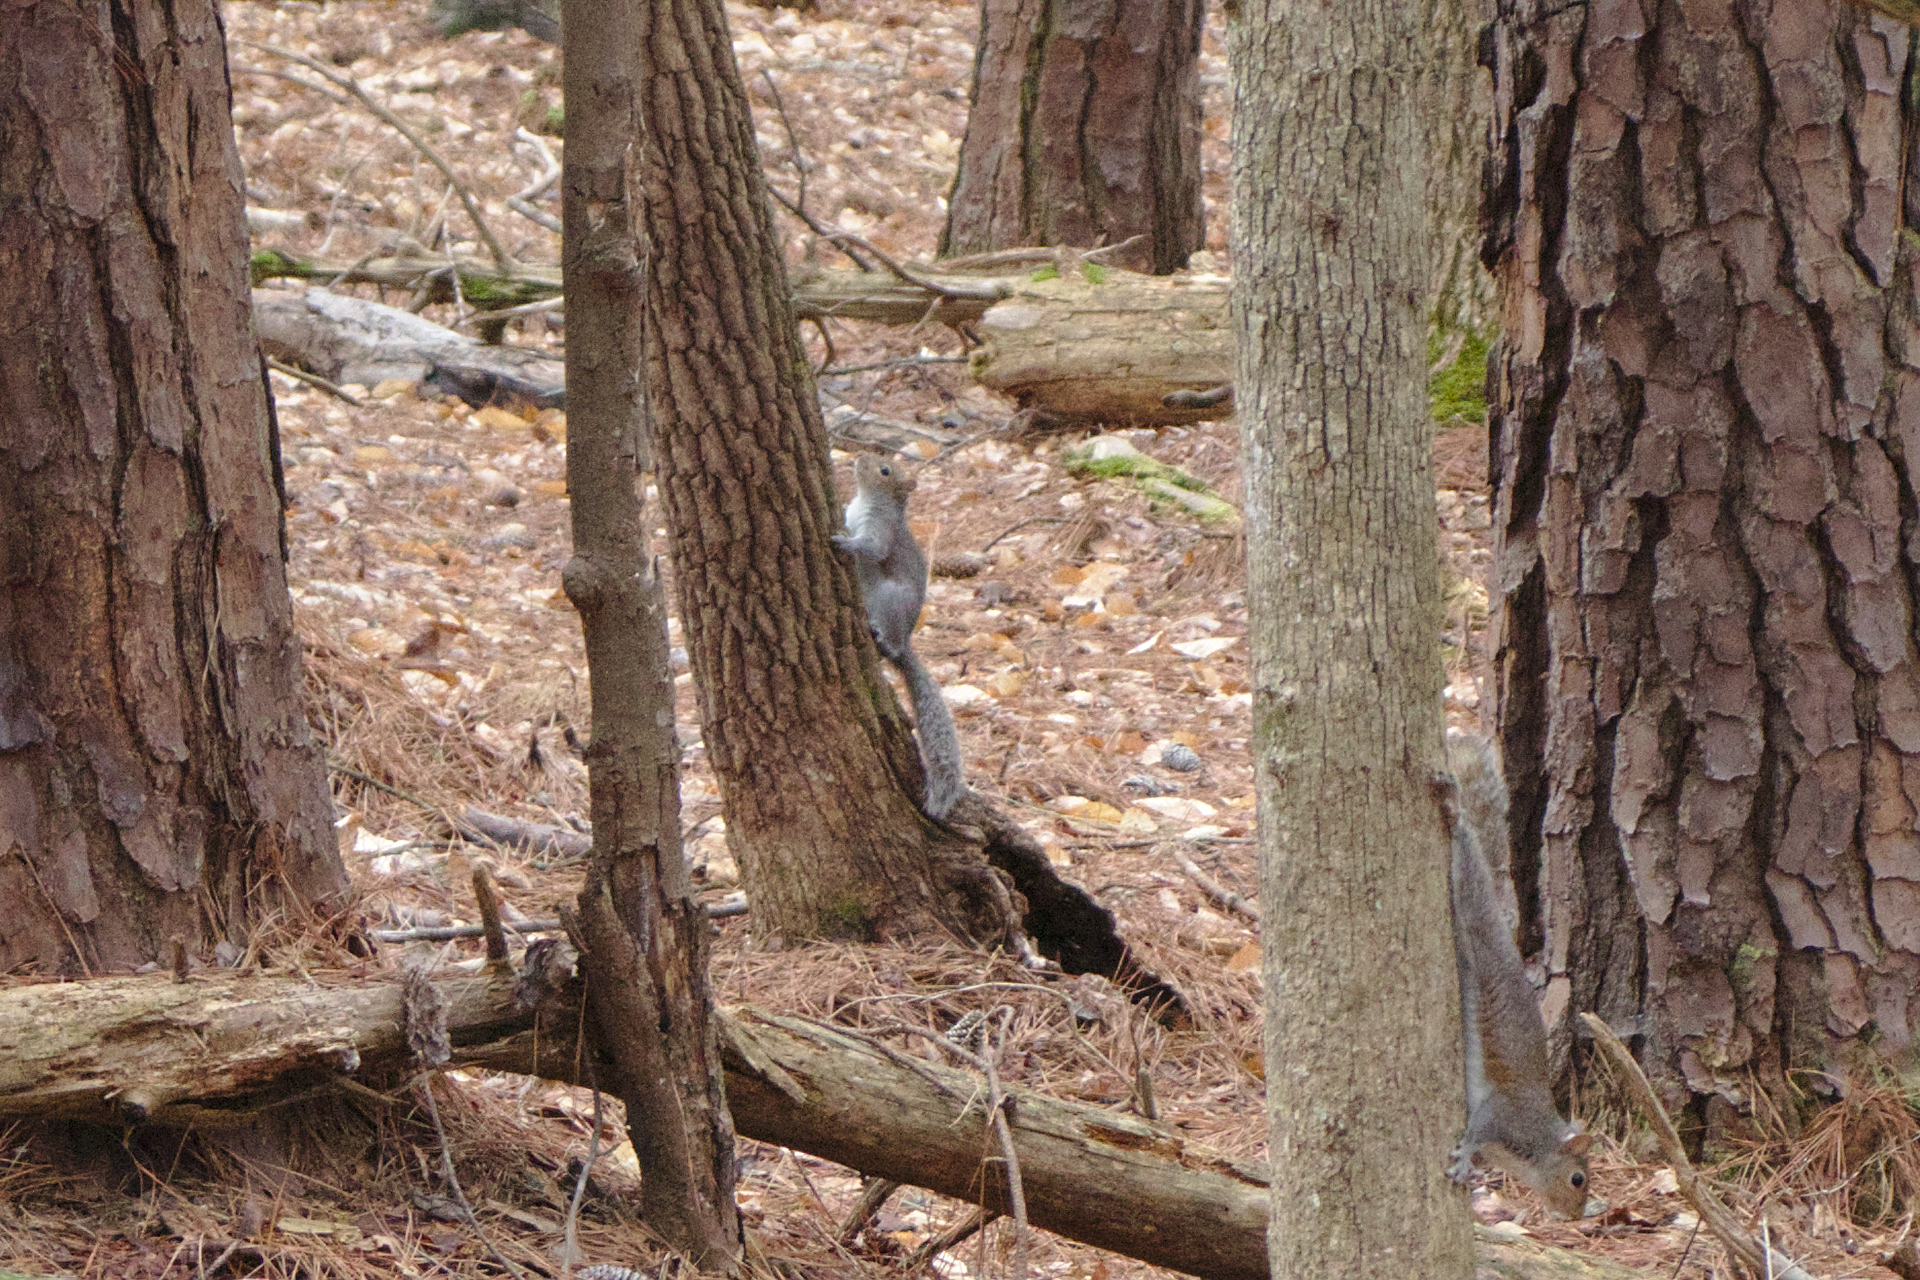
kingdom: Animalia
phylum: Chordata
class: Mammalia
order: Rodentia
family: Sciuridae
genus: Sciurus
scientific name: Sciurus carolinensis
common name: Eastern gray squirrel
